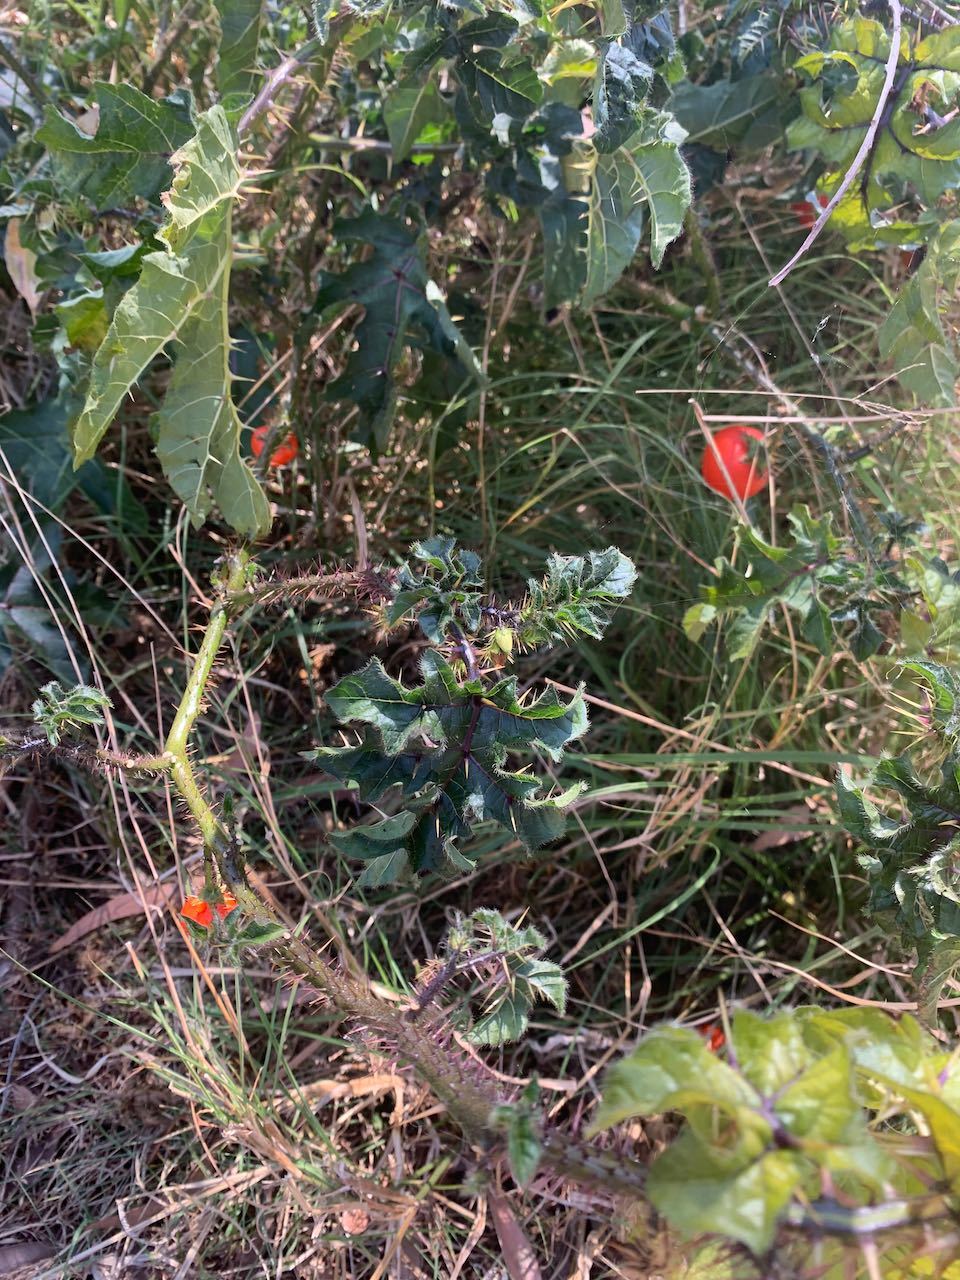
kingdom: Plantae
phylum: Tracheophyta
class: Magnoliopsida
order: Solanales
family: Solanaceae
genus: Solanum
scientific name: Solanum capsicoides
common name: Cockroach berry
